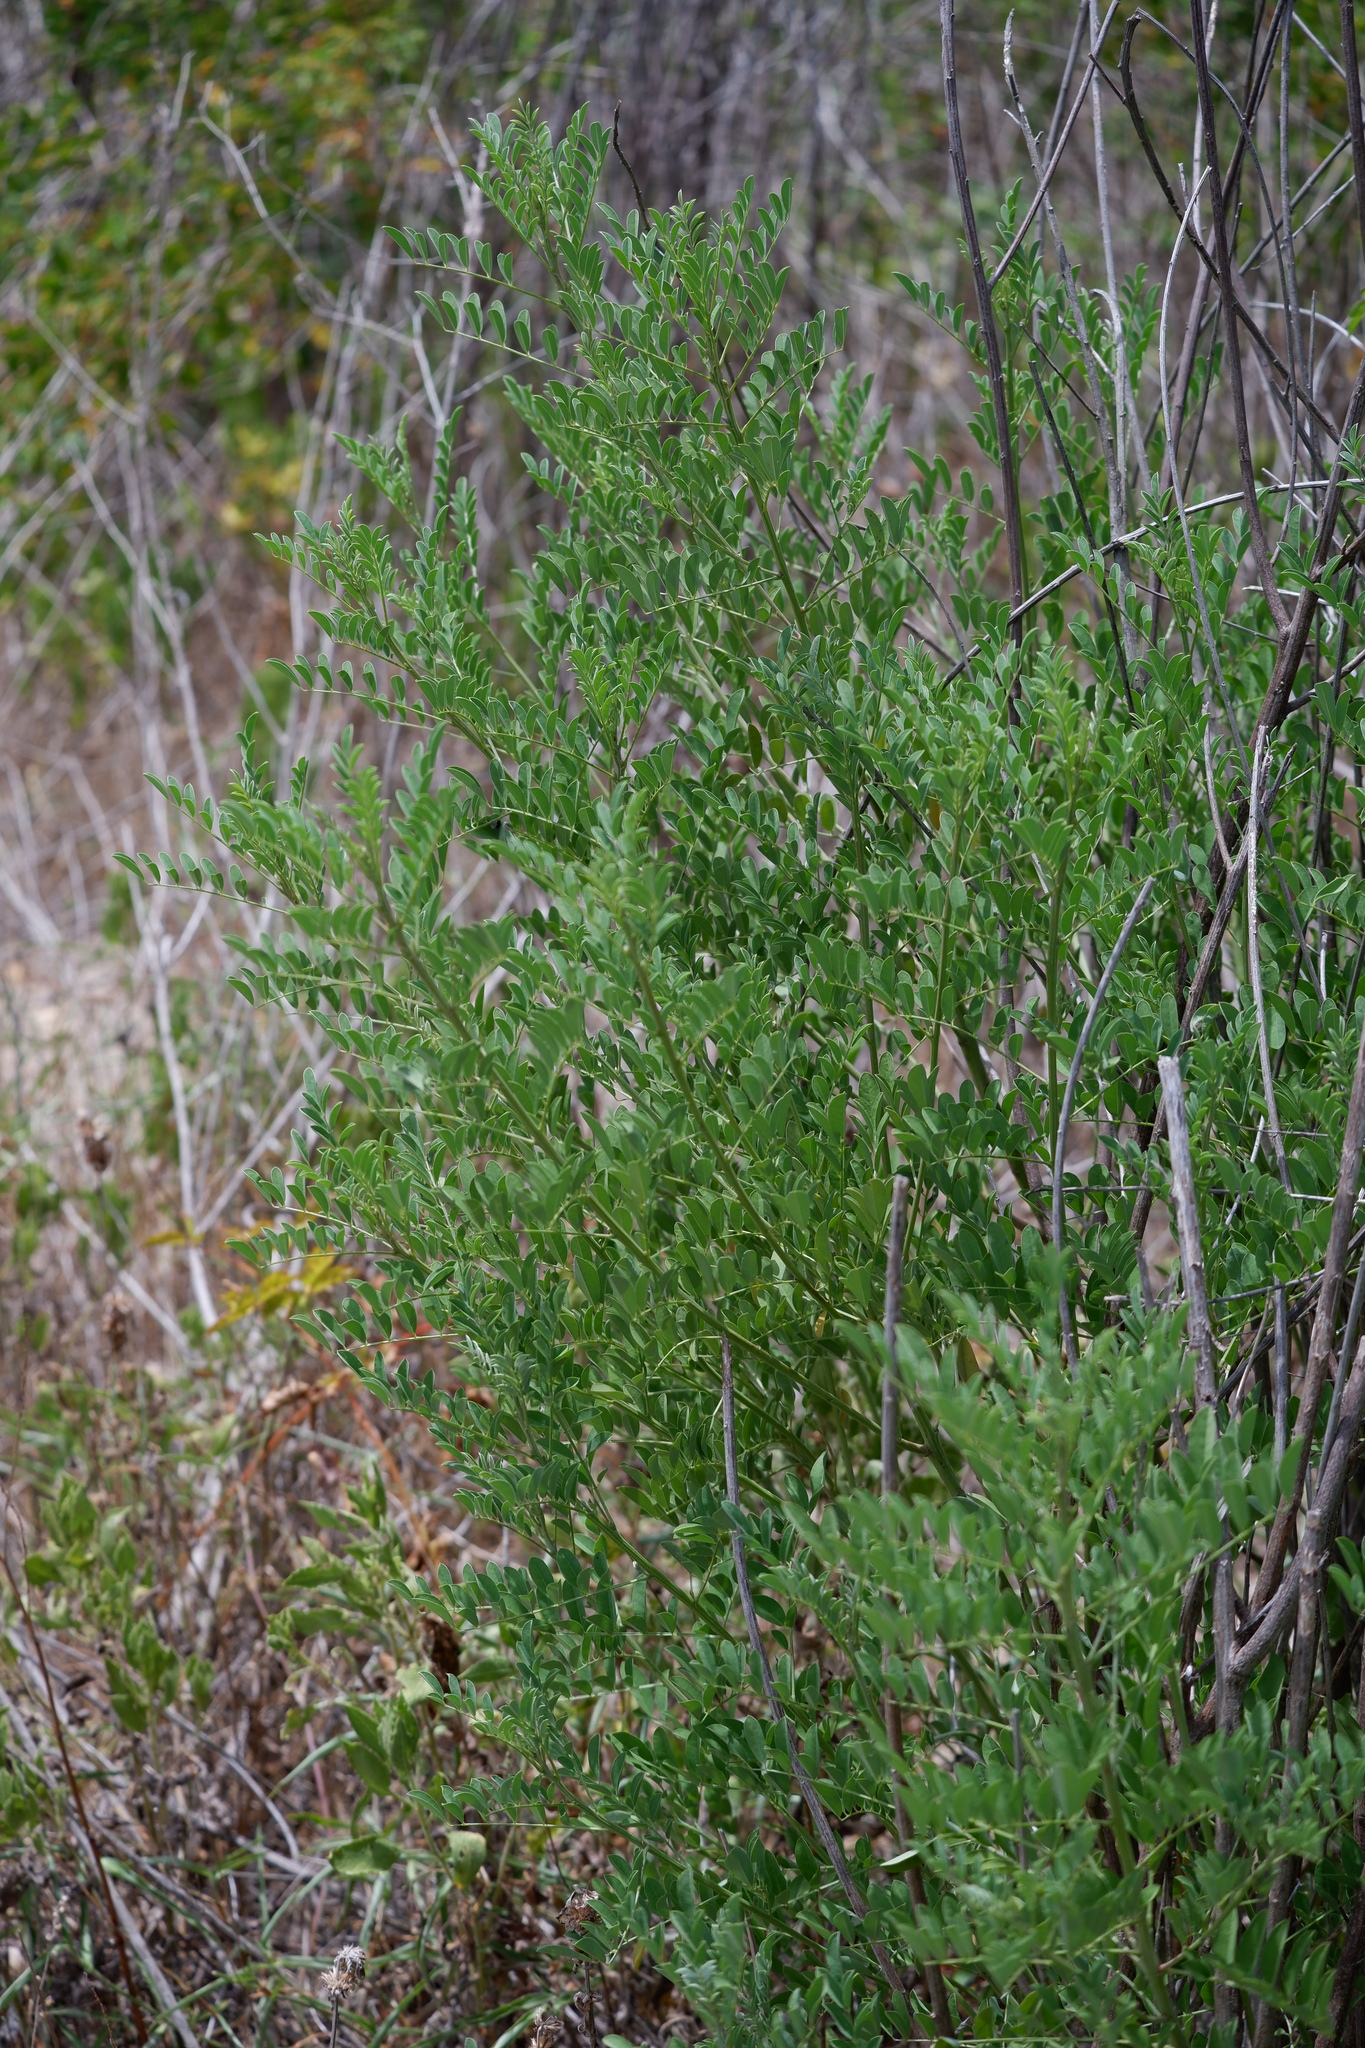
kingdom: Plantae
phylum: Tracheophyta
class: Magnoliopsida
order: Fabales
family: Fabaceae
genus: Indigofera
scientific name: Indigofera suffruticosa
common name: Anil de pasto
